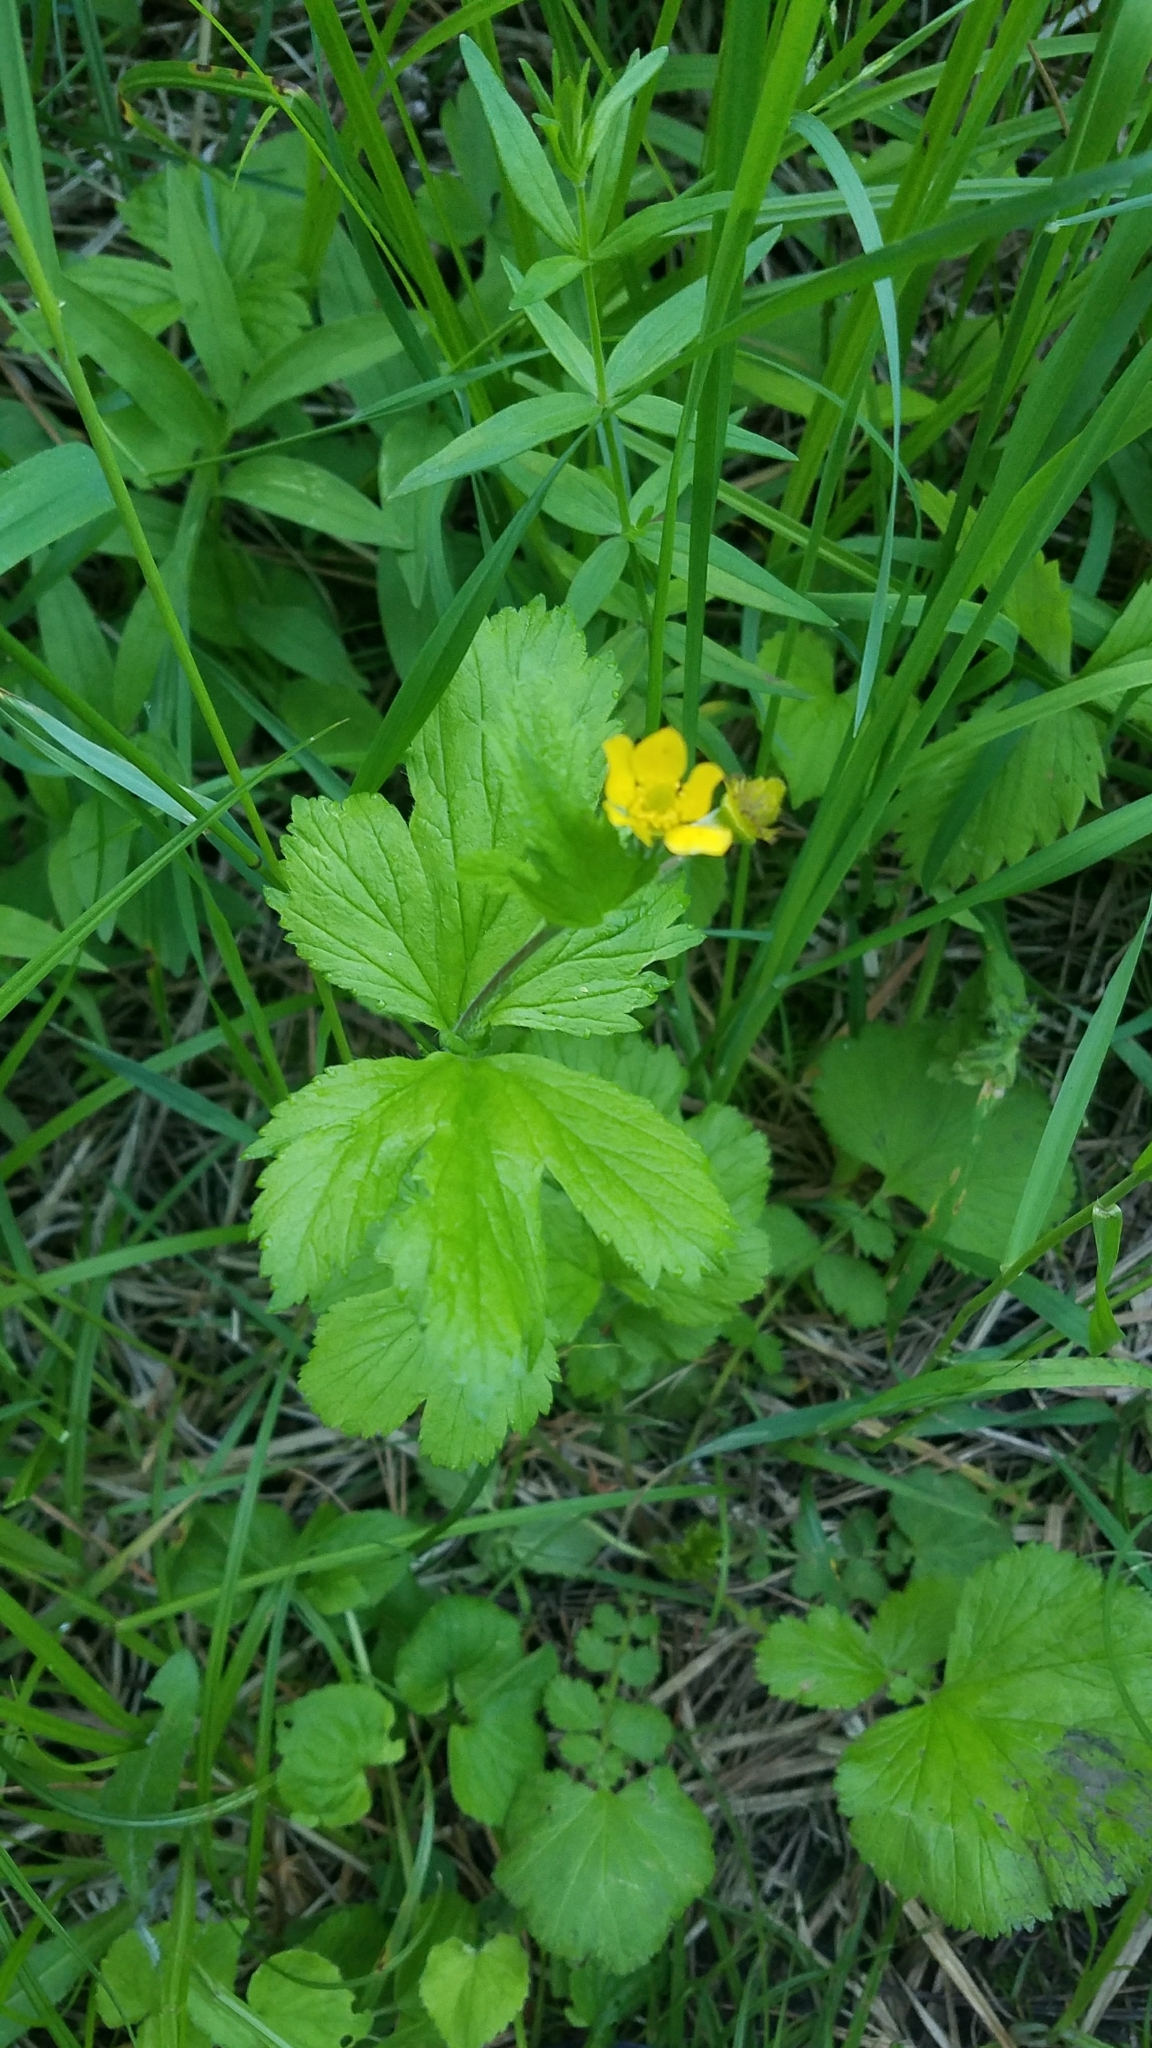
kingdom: Plantae
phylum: Tracheophyta
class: Magnoliopsida
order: Rosales
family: Rosaceae
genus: Geum
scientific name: Geum macrophyllum
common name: Large-leaved avens
